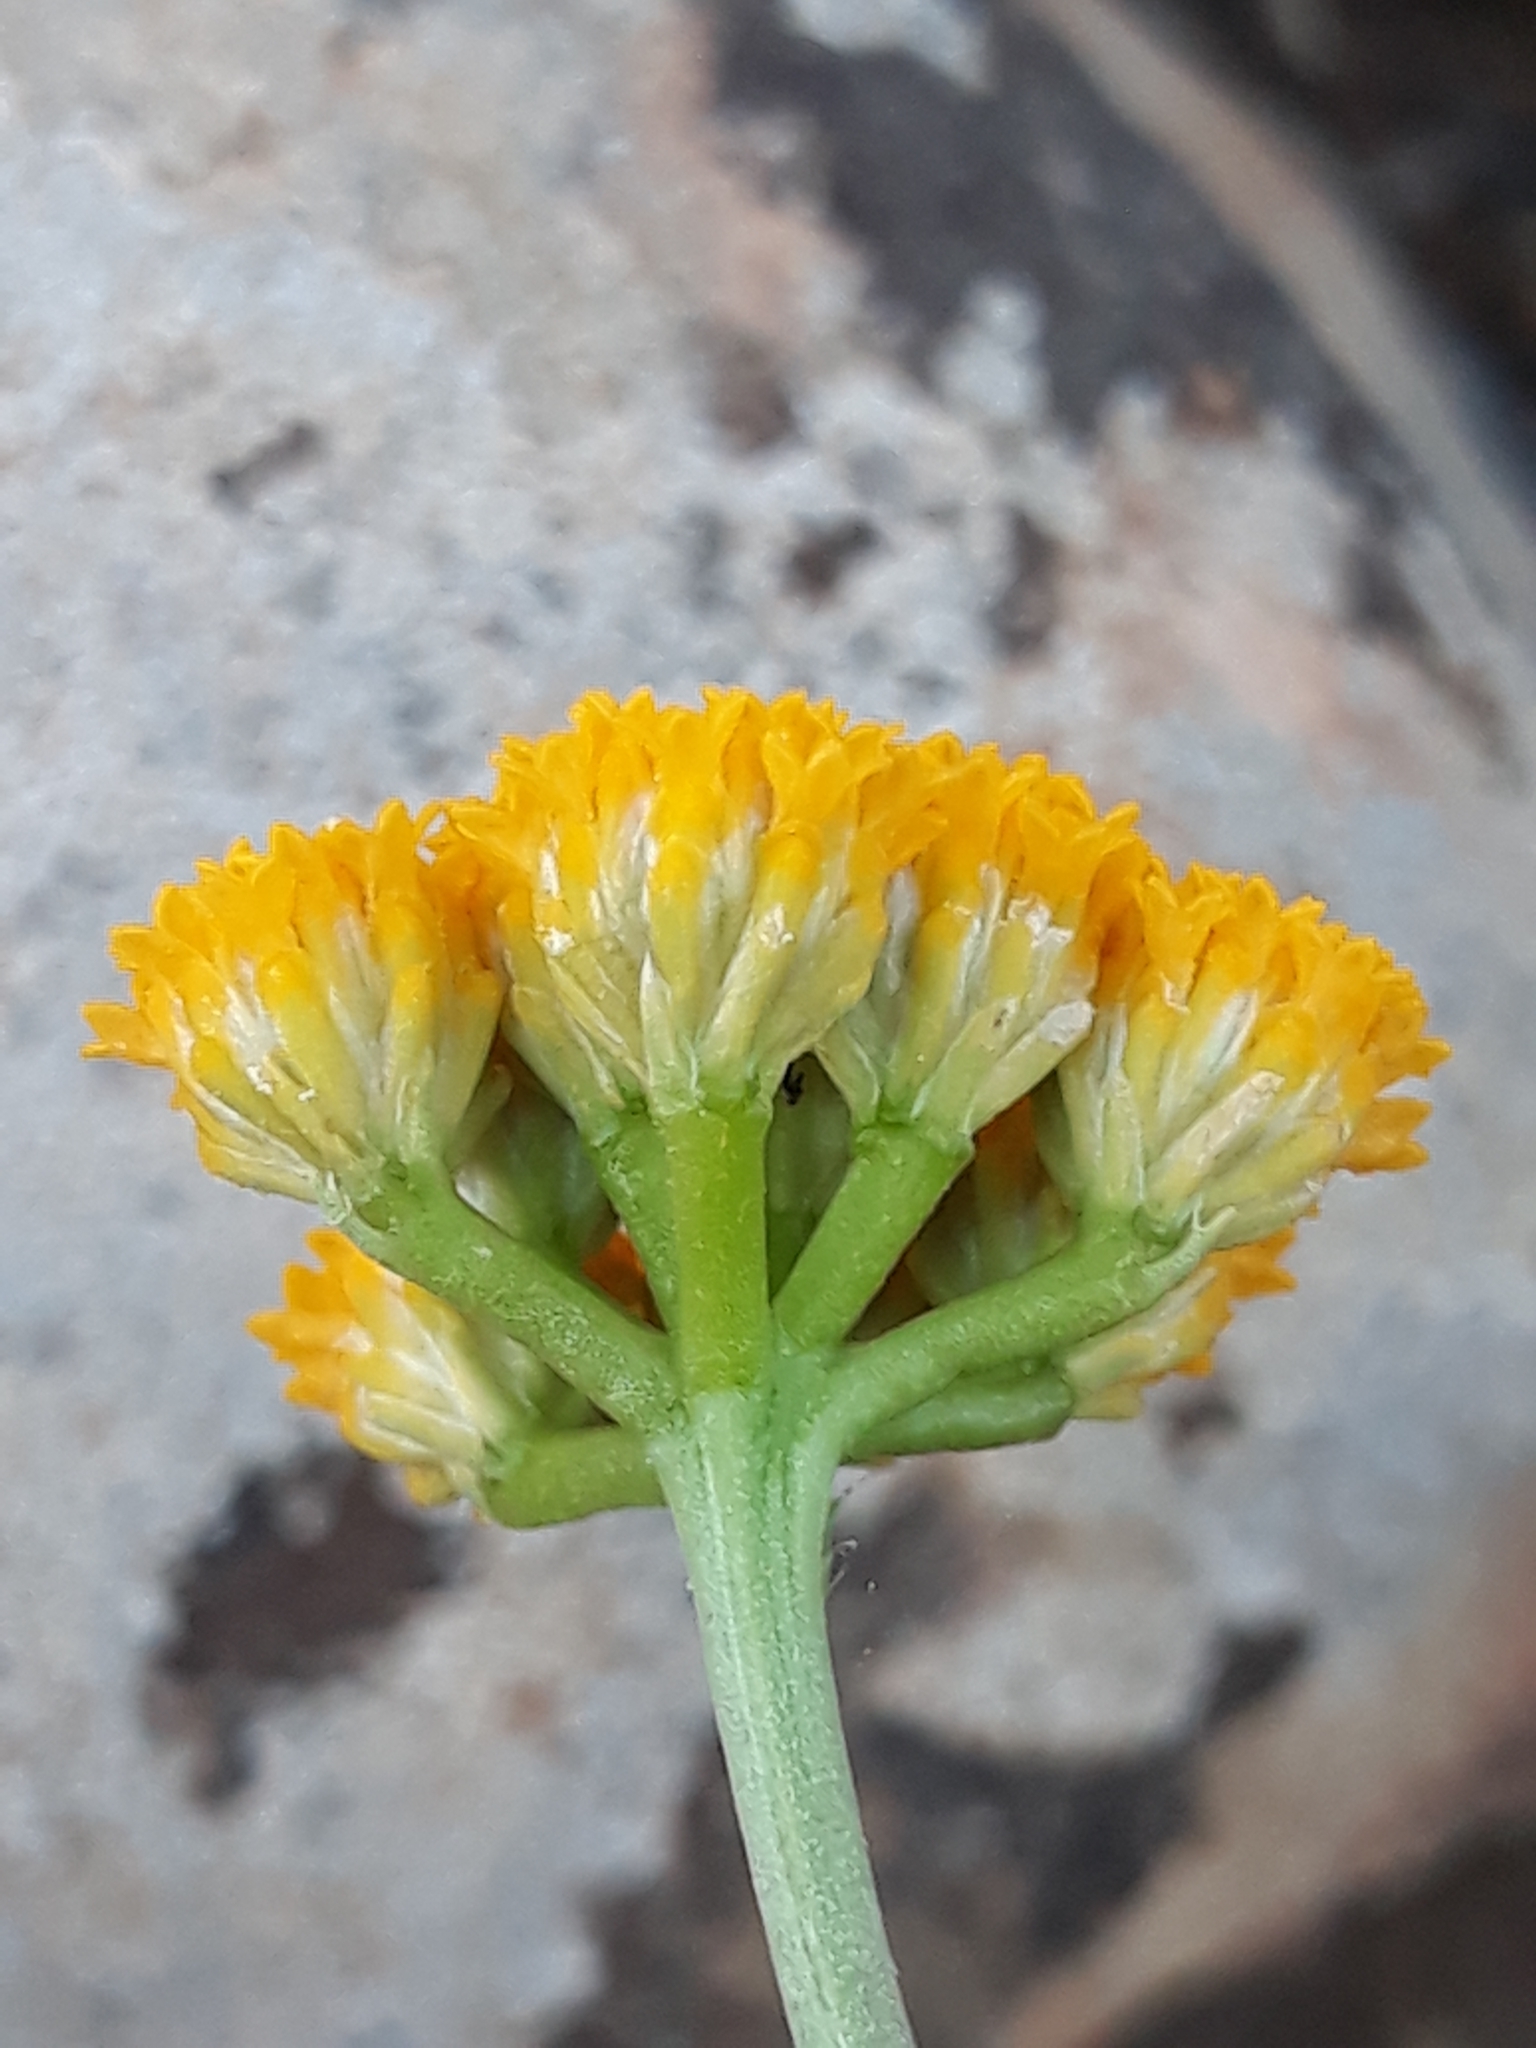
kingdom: Plantae
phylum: Tracheophyta
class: Magnoliopsida
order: Asterales
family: Asteraceae
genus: Lonas
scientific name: Lonas annua
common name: African daisy
